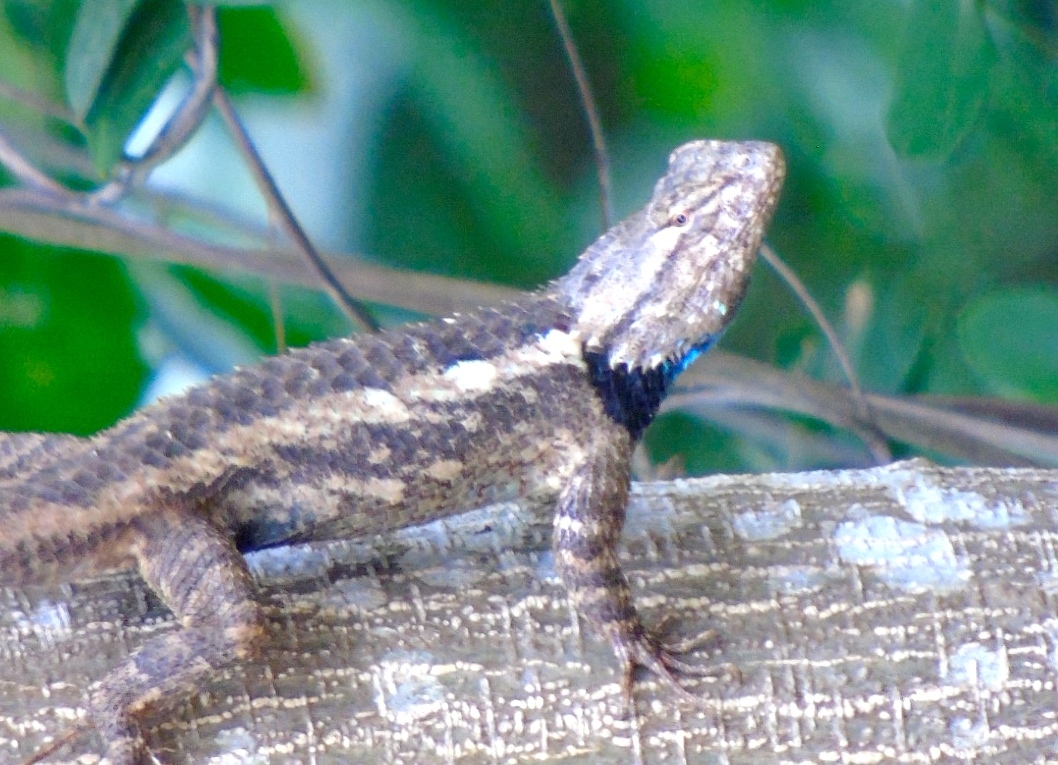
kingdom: Animalia
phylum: Chordata
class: Squamata
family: Phrynosomatidae
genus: Sceloporus
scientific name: Sceloporus clarkii
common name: Clark's spiny lizard
